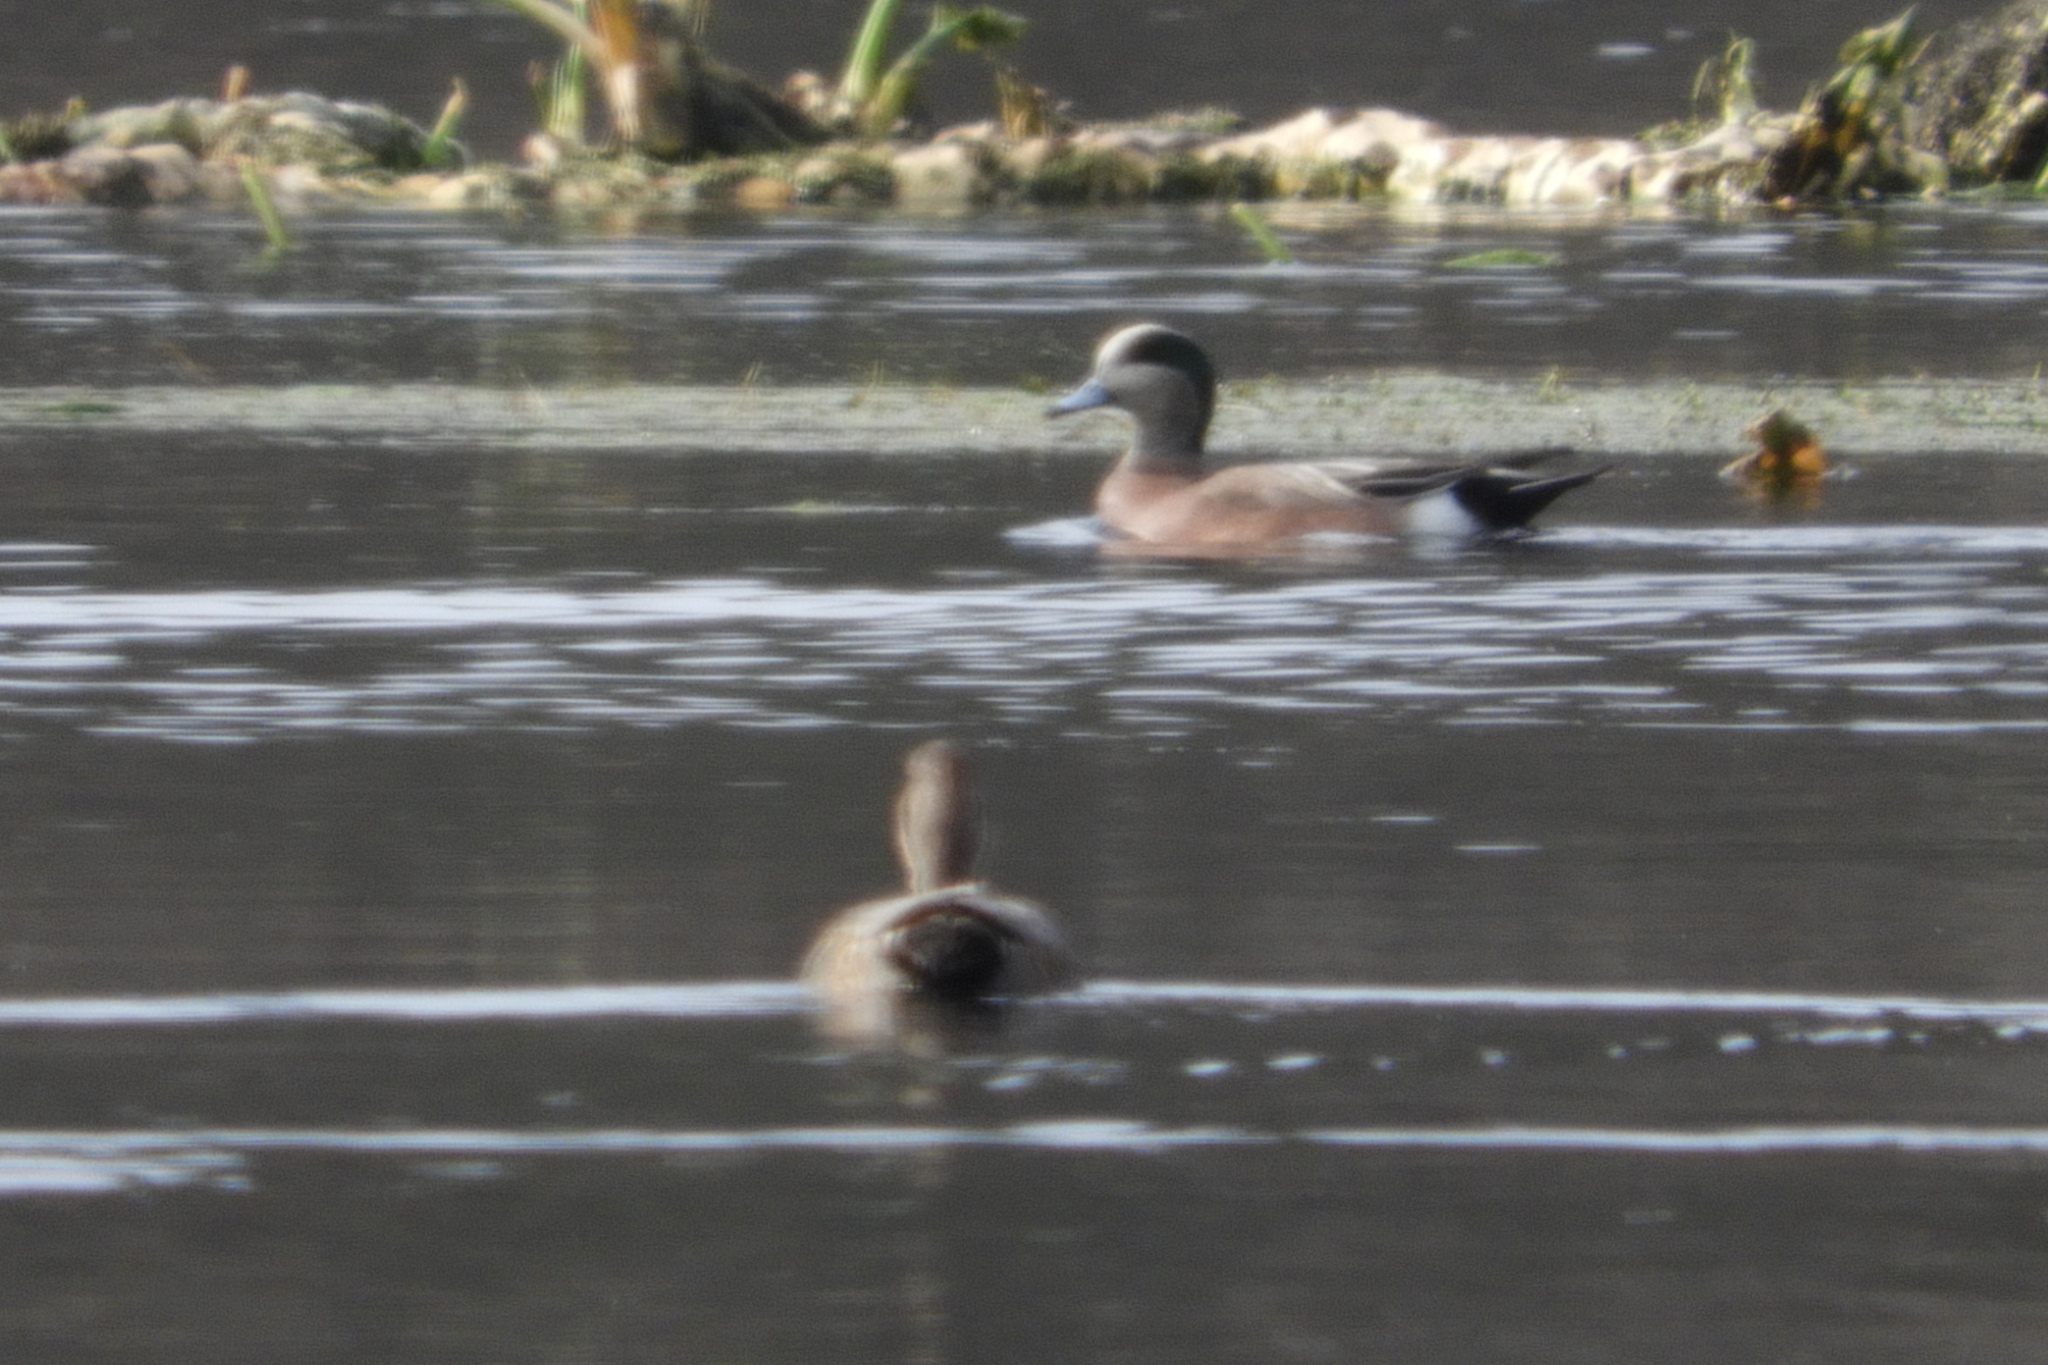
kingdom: Animalia
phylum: Chordata
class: Aves
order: Anseriformes
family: Anatidae
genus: Mareca
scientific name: Mareca americana
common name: American wigeon
